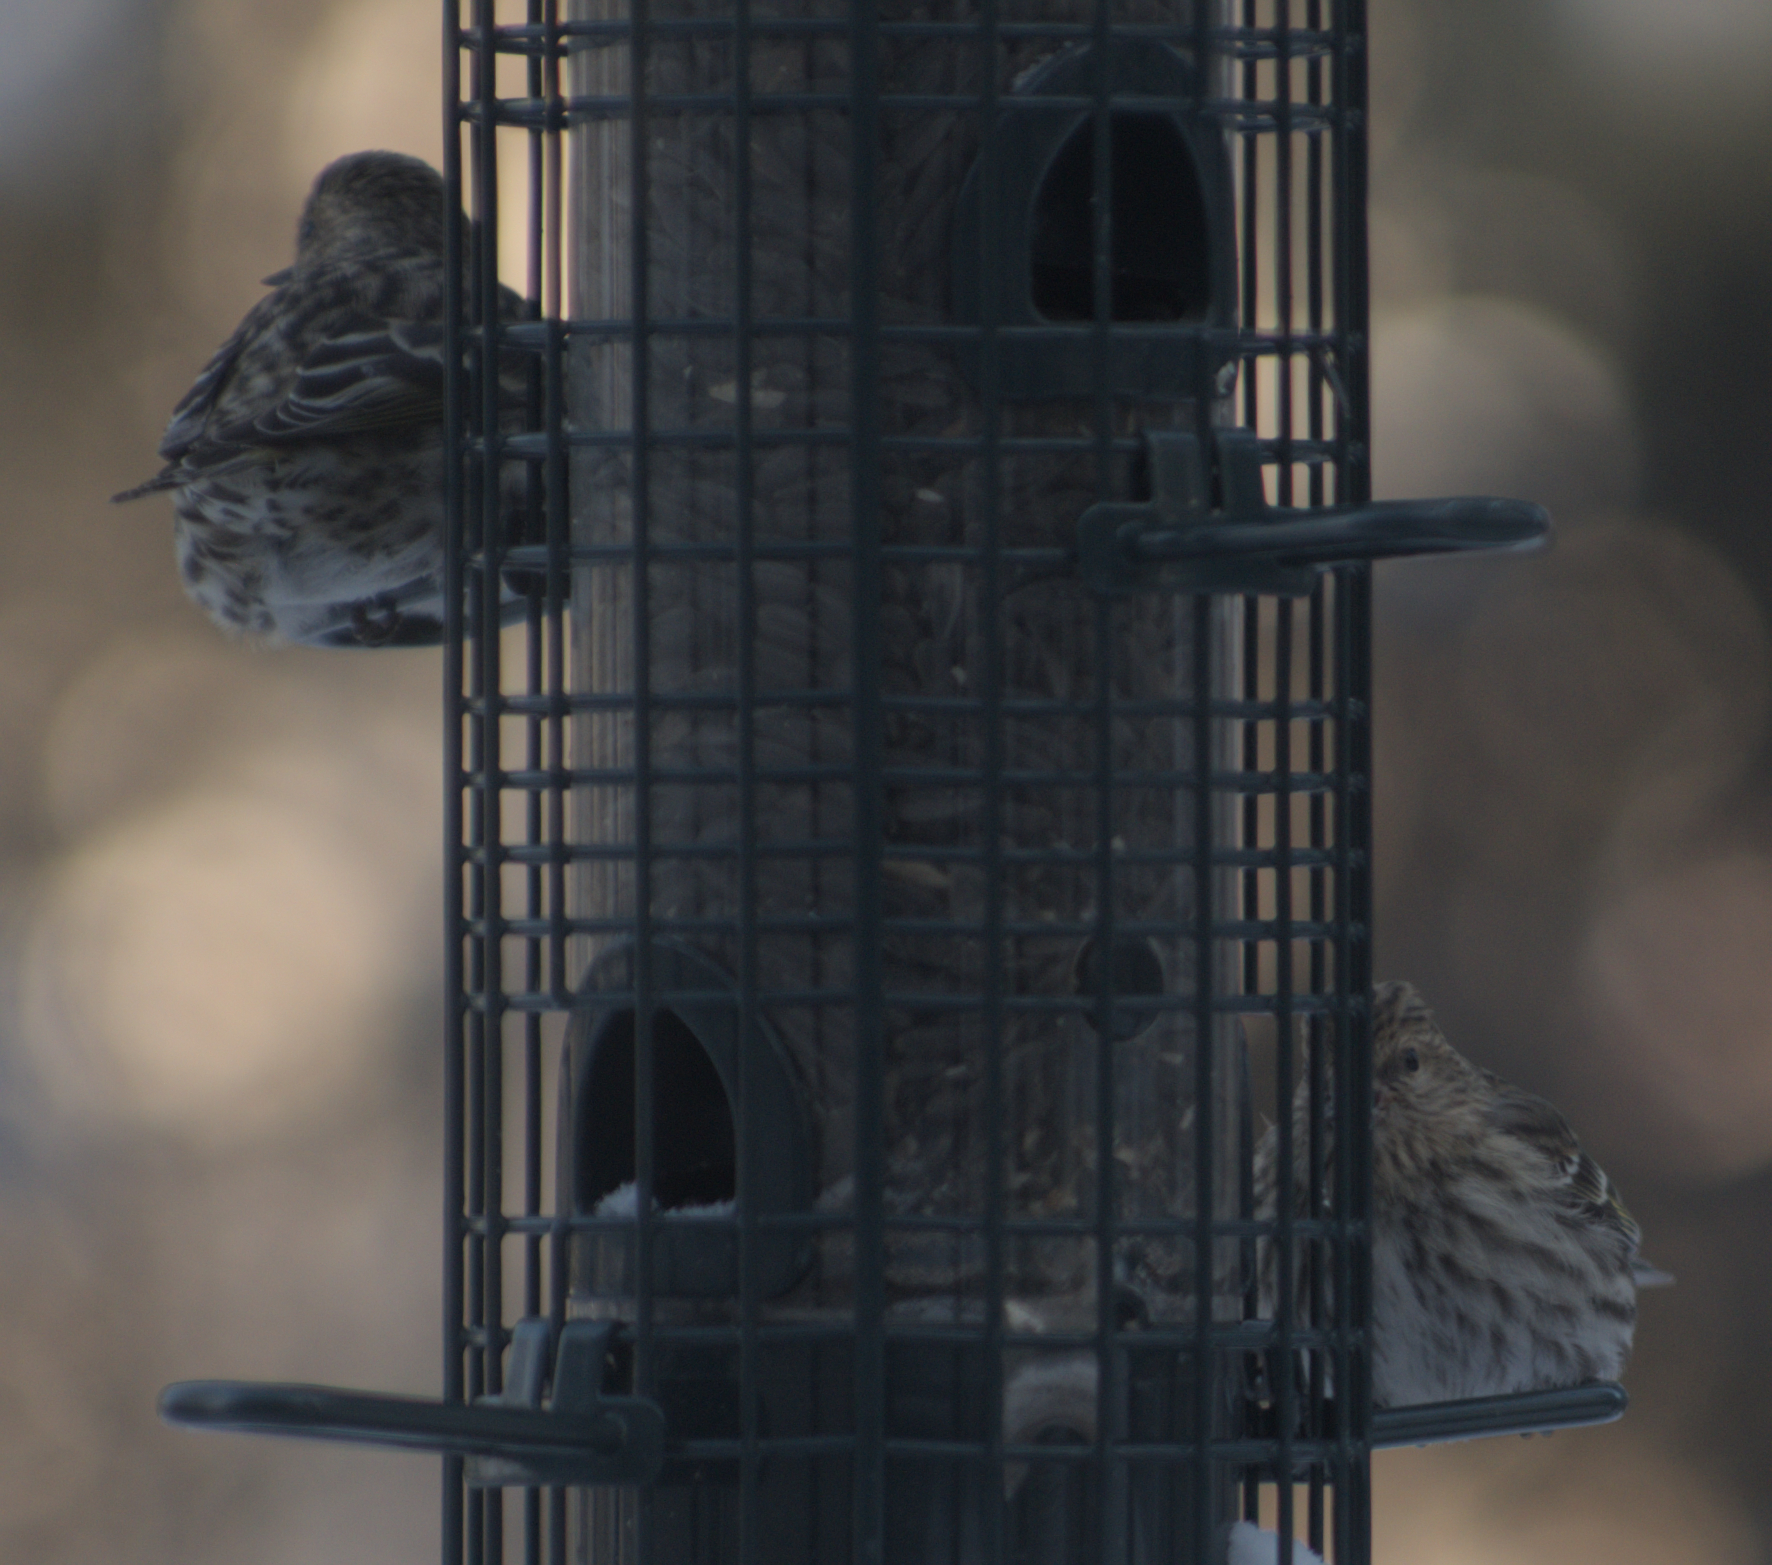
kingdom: Animalia
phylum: Chordata
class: Aves
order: Passeriformes
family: Fringillidae
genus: Spinus
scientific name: Spinus pinus
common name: Pine siskin
